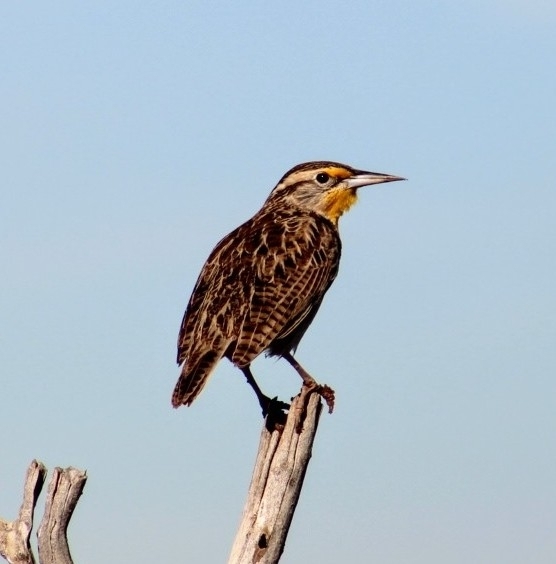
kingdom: Animalia
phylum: Chordata
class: Aves
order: Passeriformes
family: Icteridae
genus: Sturnella
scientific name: Sturnella neglecta
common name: Western meadowlark
